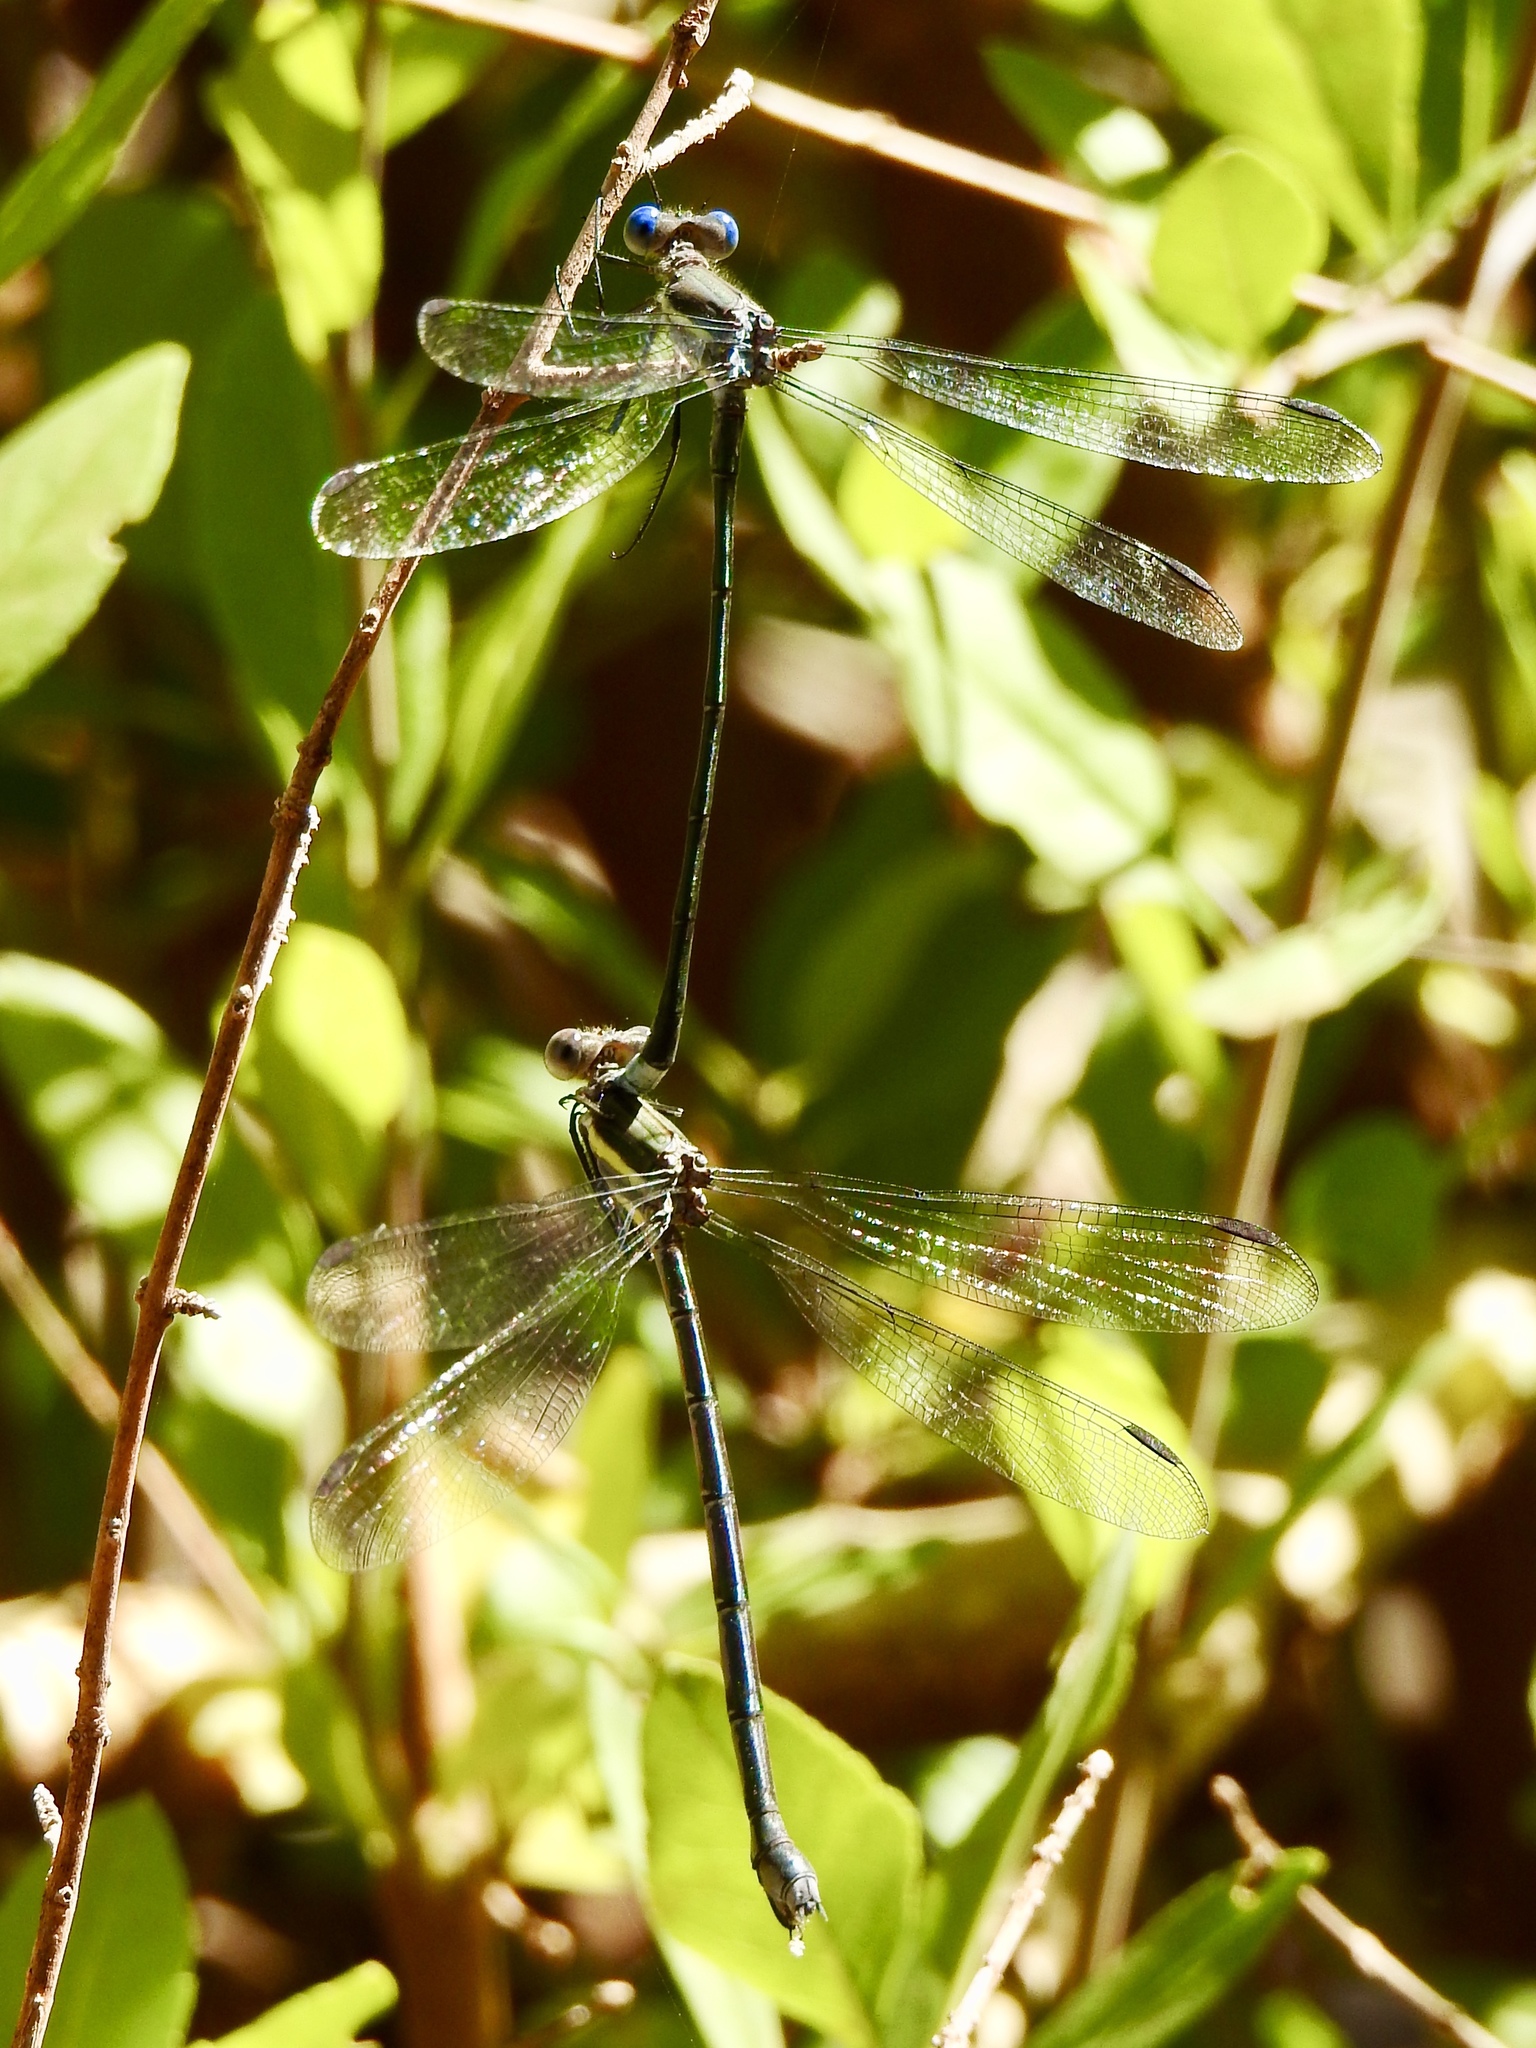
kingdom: Animalia
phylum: Arthropoda
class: Insecta
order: Odonata
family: Lestidae
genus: Archilestes
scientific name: Archilestes grandis
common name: Great spreadwing
